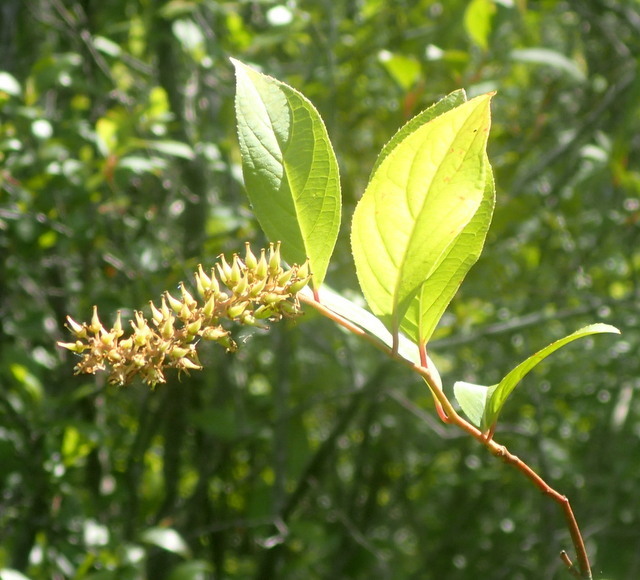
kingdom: Plantae
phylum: Tracheophyta
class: Magnoliopsida
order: Saxifragales
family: Iteaceae
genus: Itea
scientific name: Itea virginica
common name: Sweetspire
